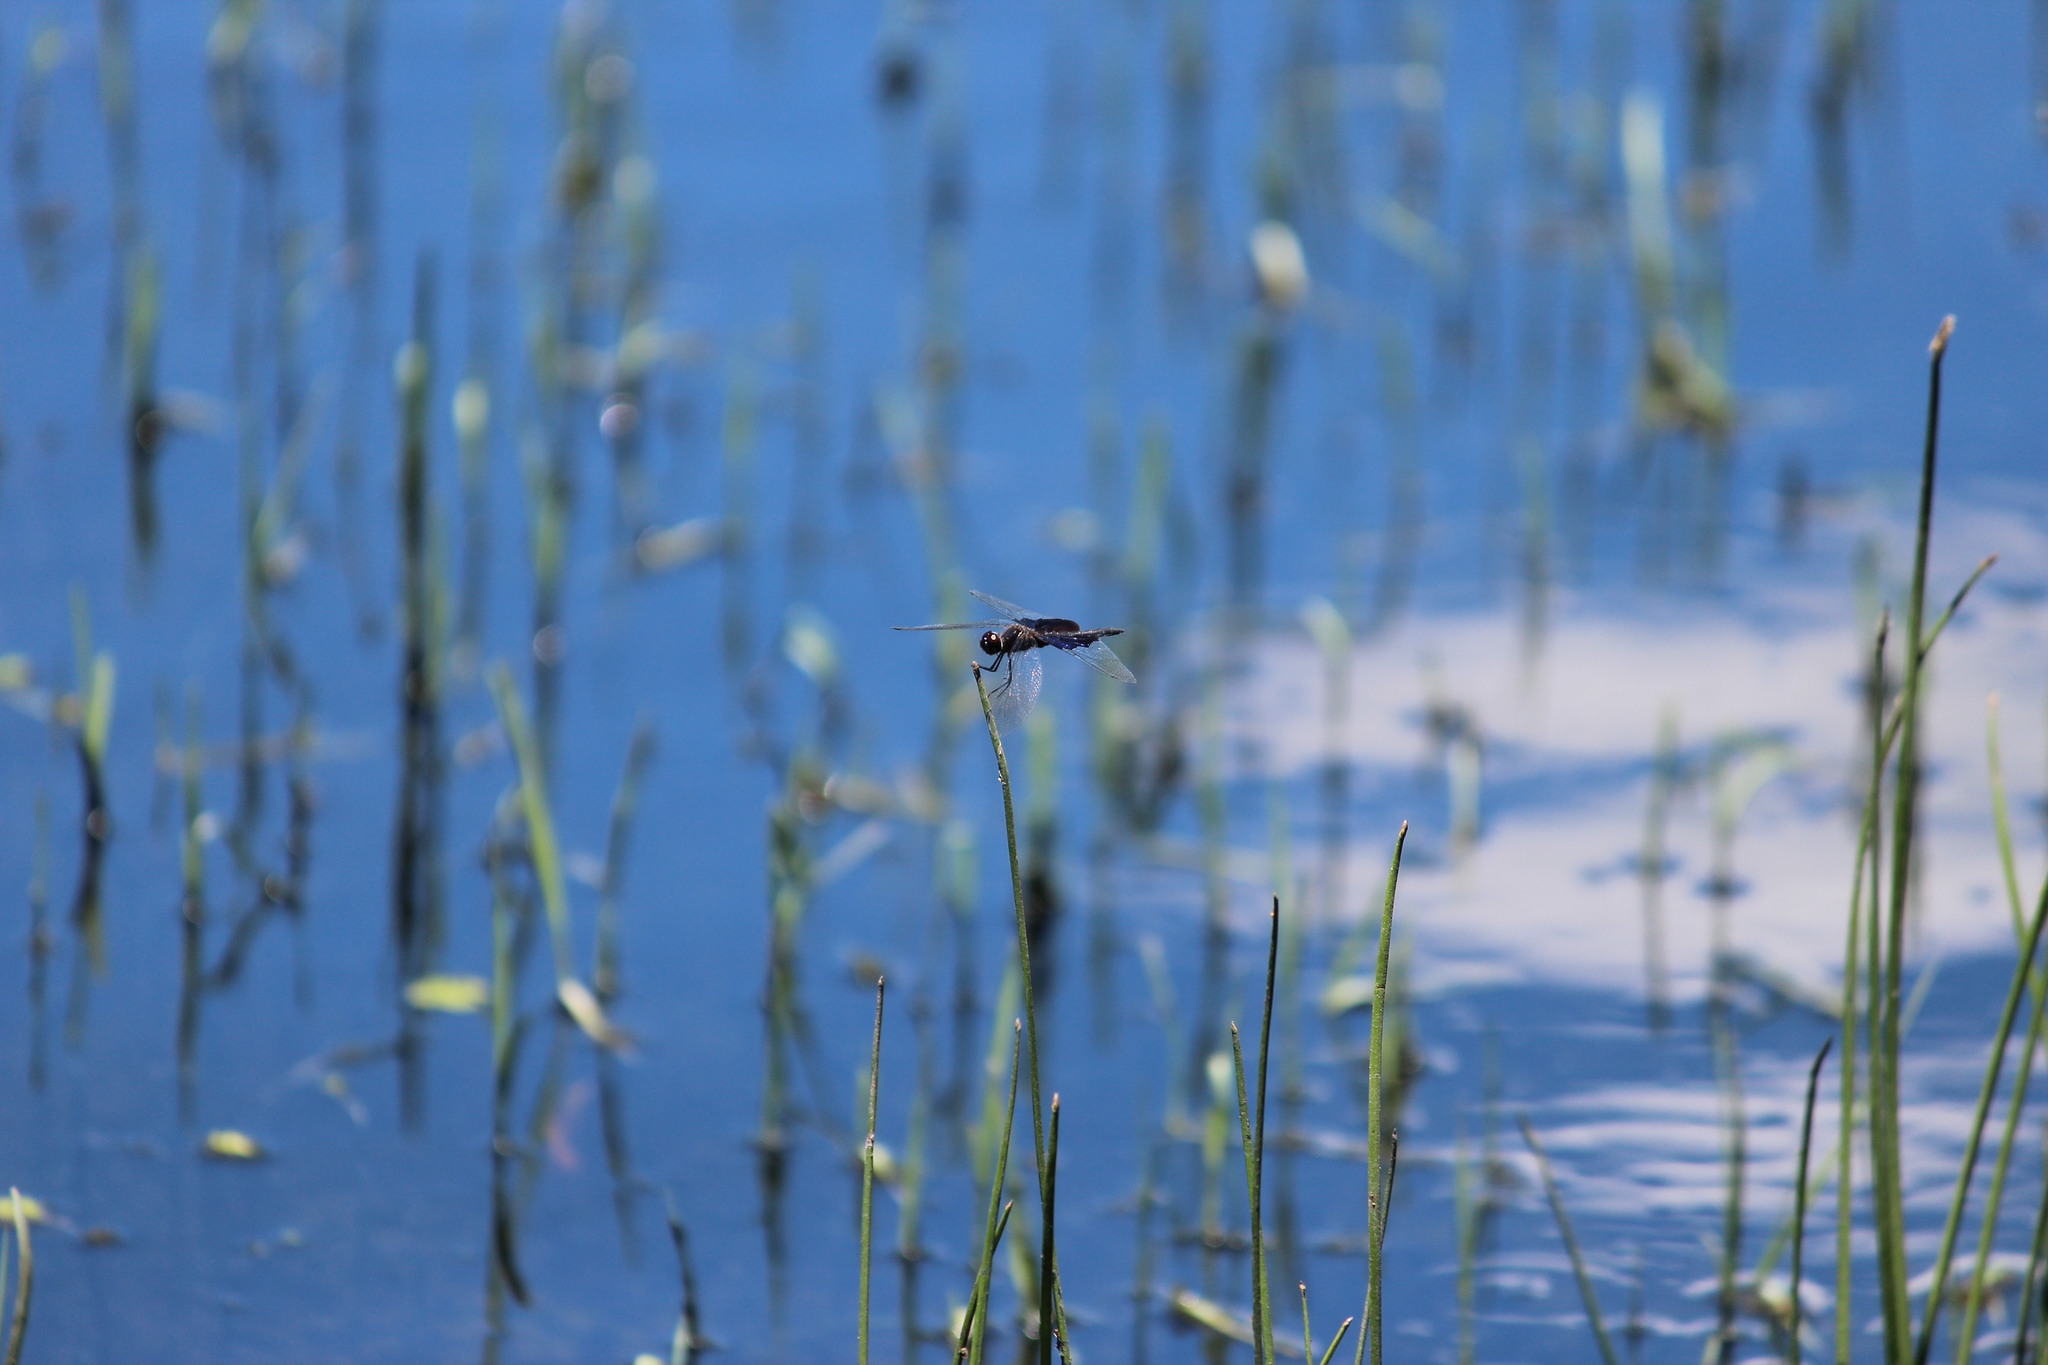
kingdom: Animalia
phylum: Arthropoda
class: Insecta
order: Odonata
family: Libellulidae
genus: Rhyothemis
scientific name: Rhyothemis semihyalina
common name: Phantom flutterer
